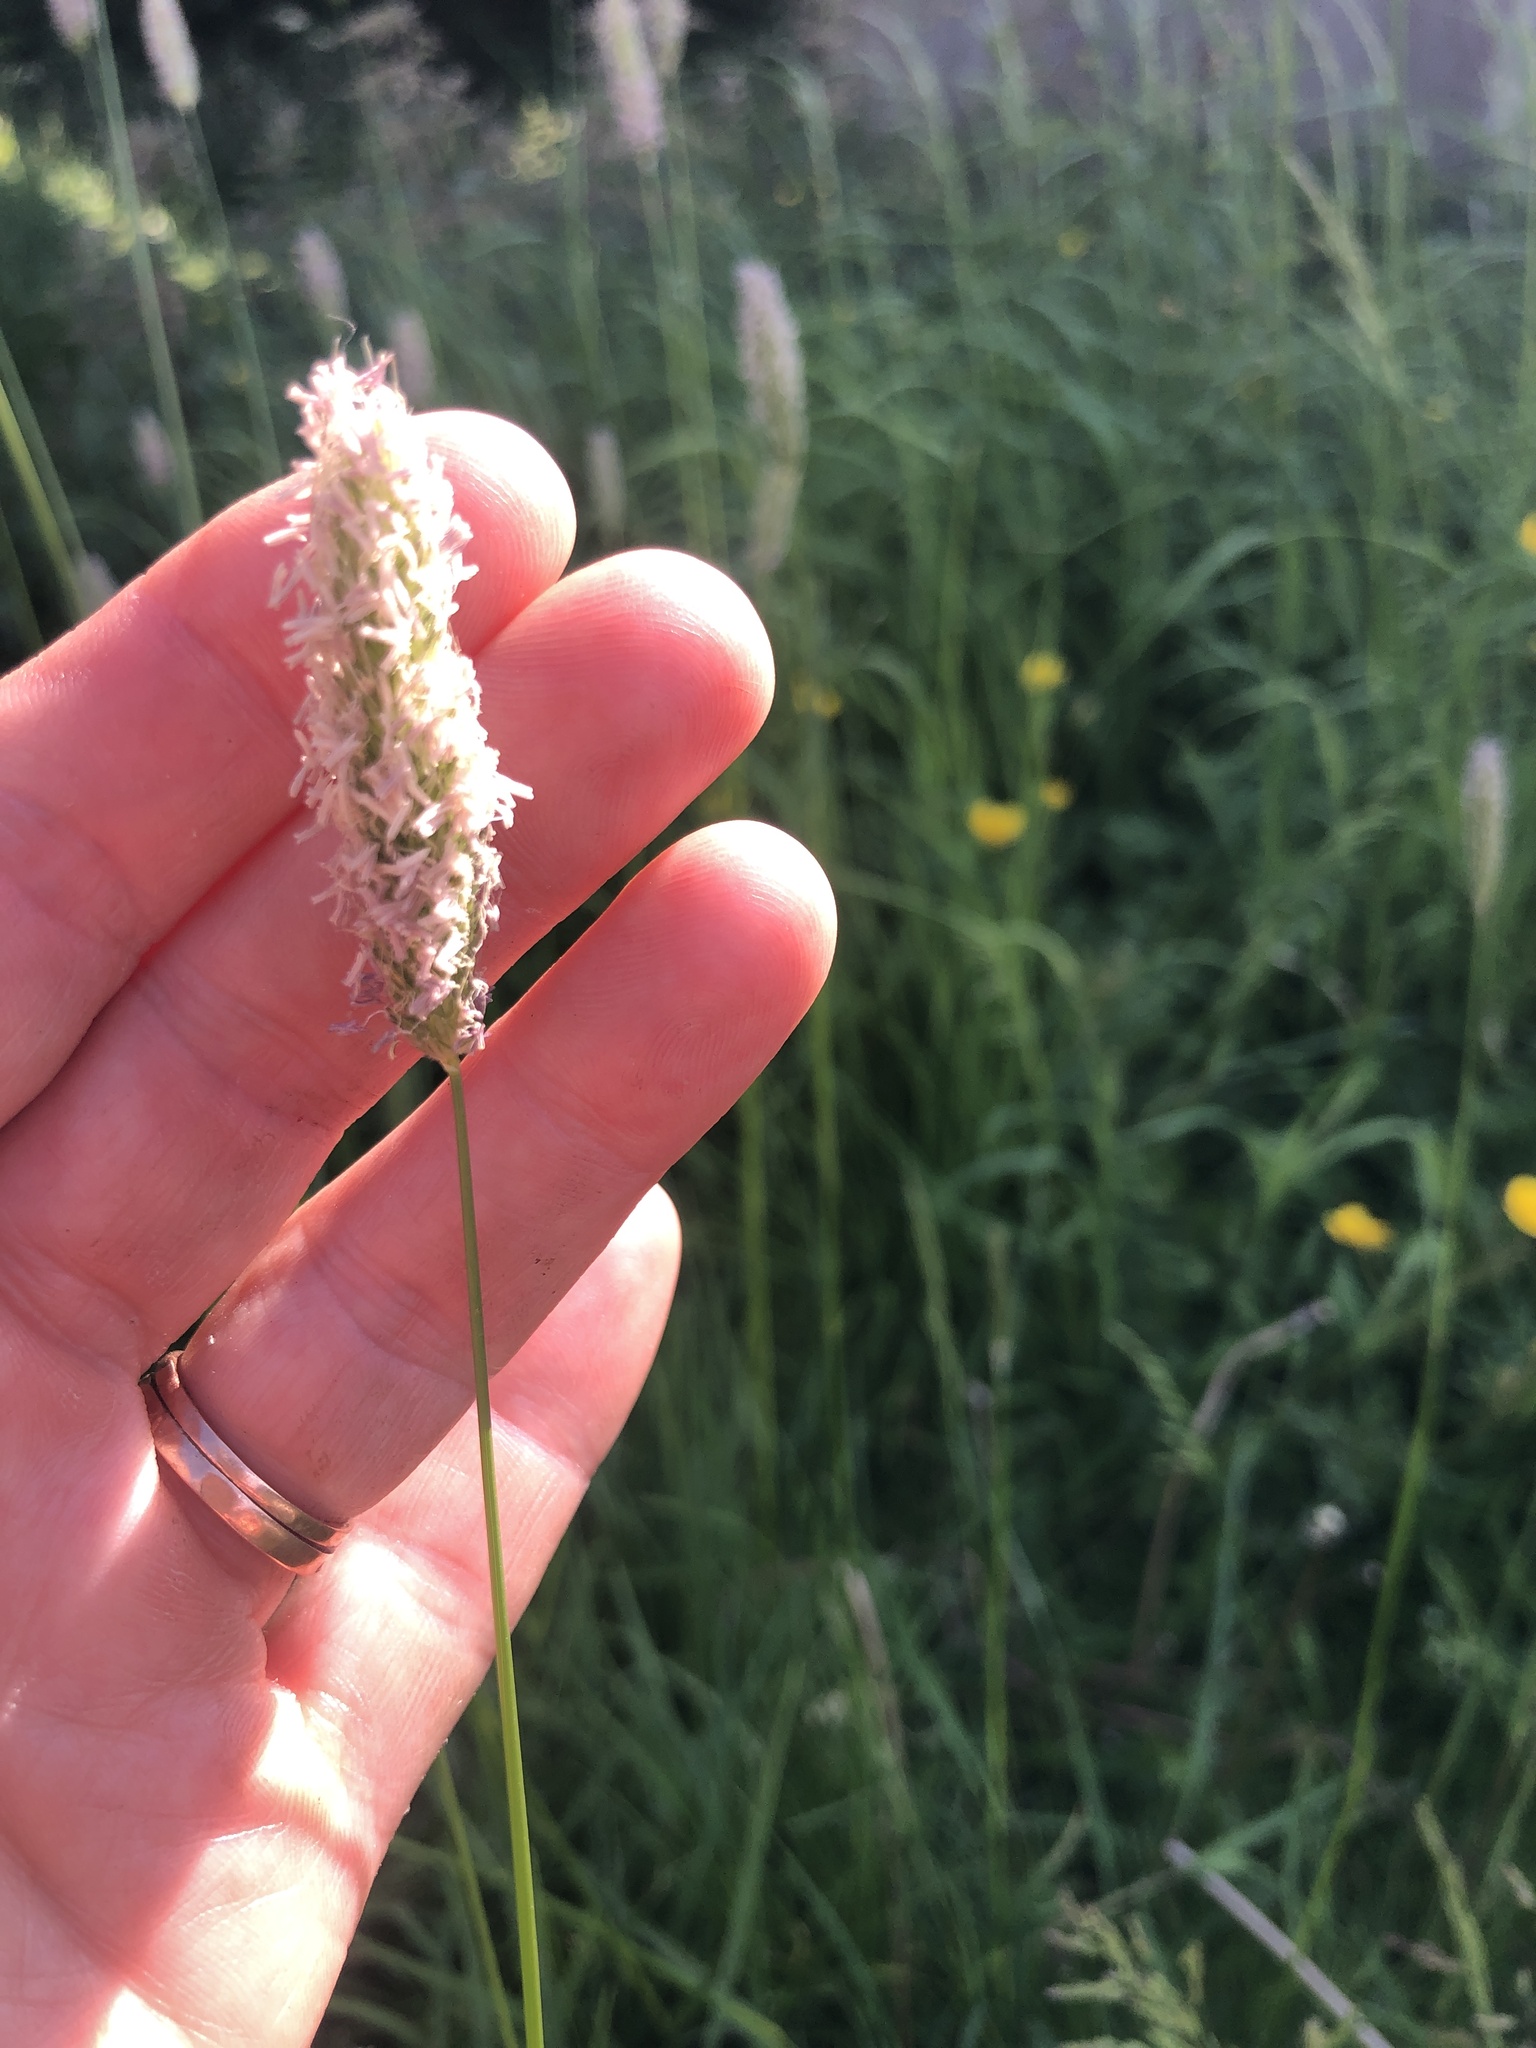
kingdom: Plantae
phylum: Tracheophyta
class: Liliopsida
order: Poales
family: Poaceae
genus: Alopecurus
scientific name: Alopecurus pratensis
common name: Meadow foxtail
